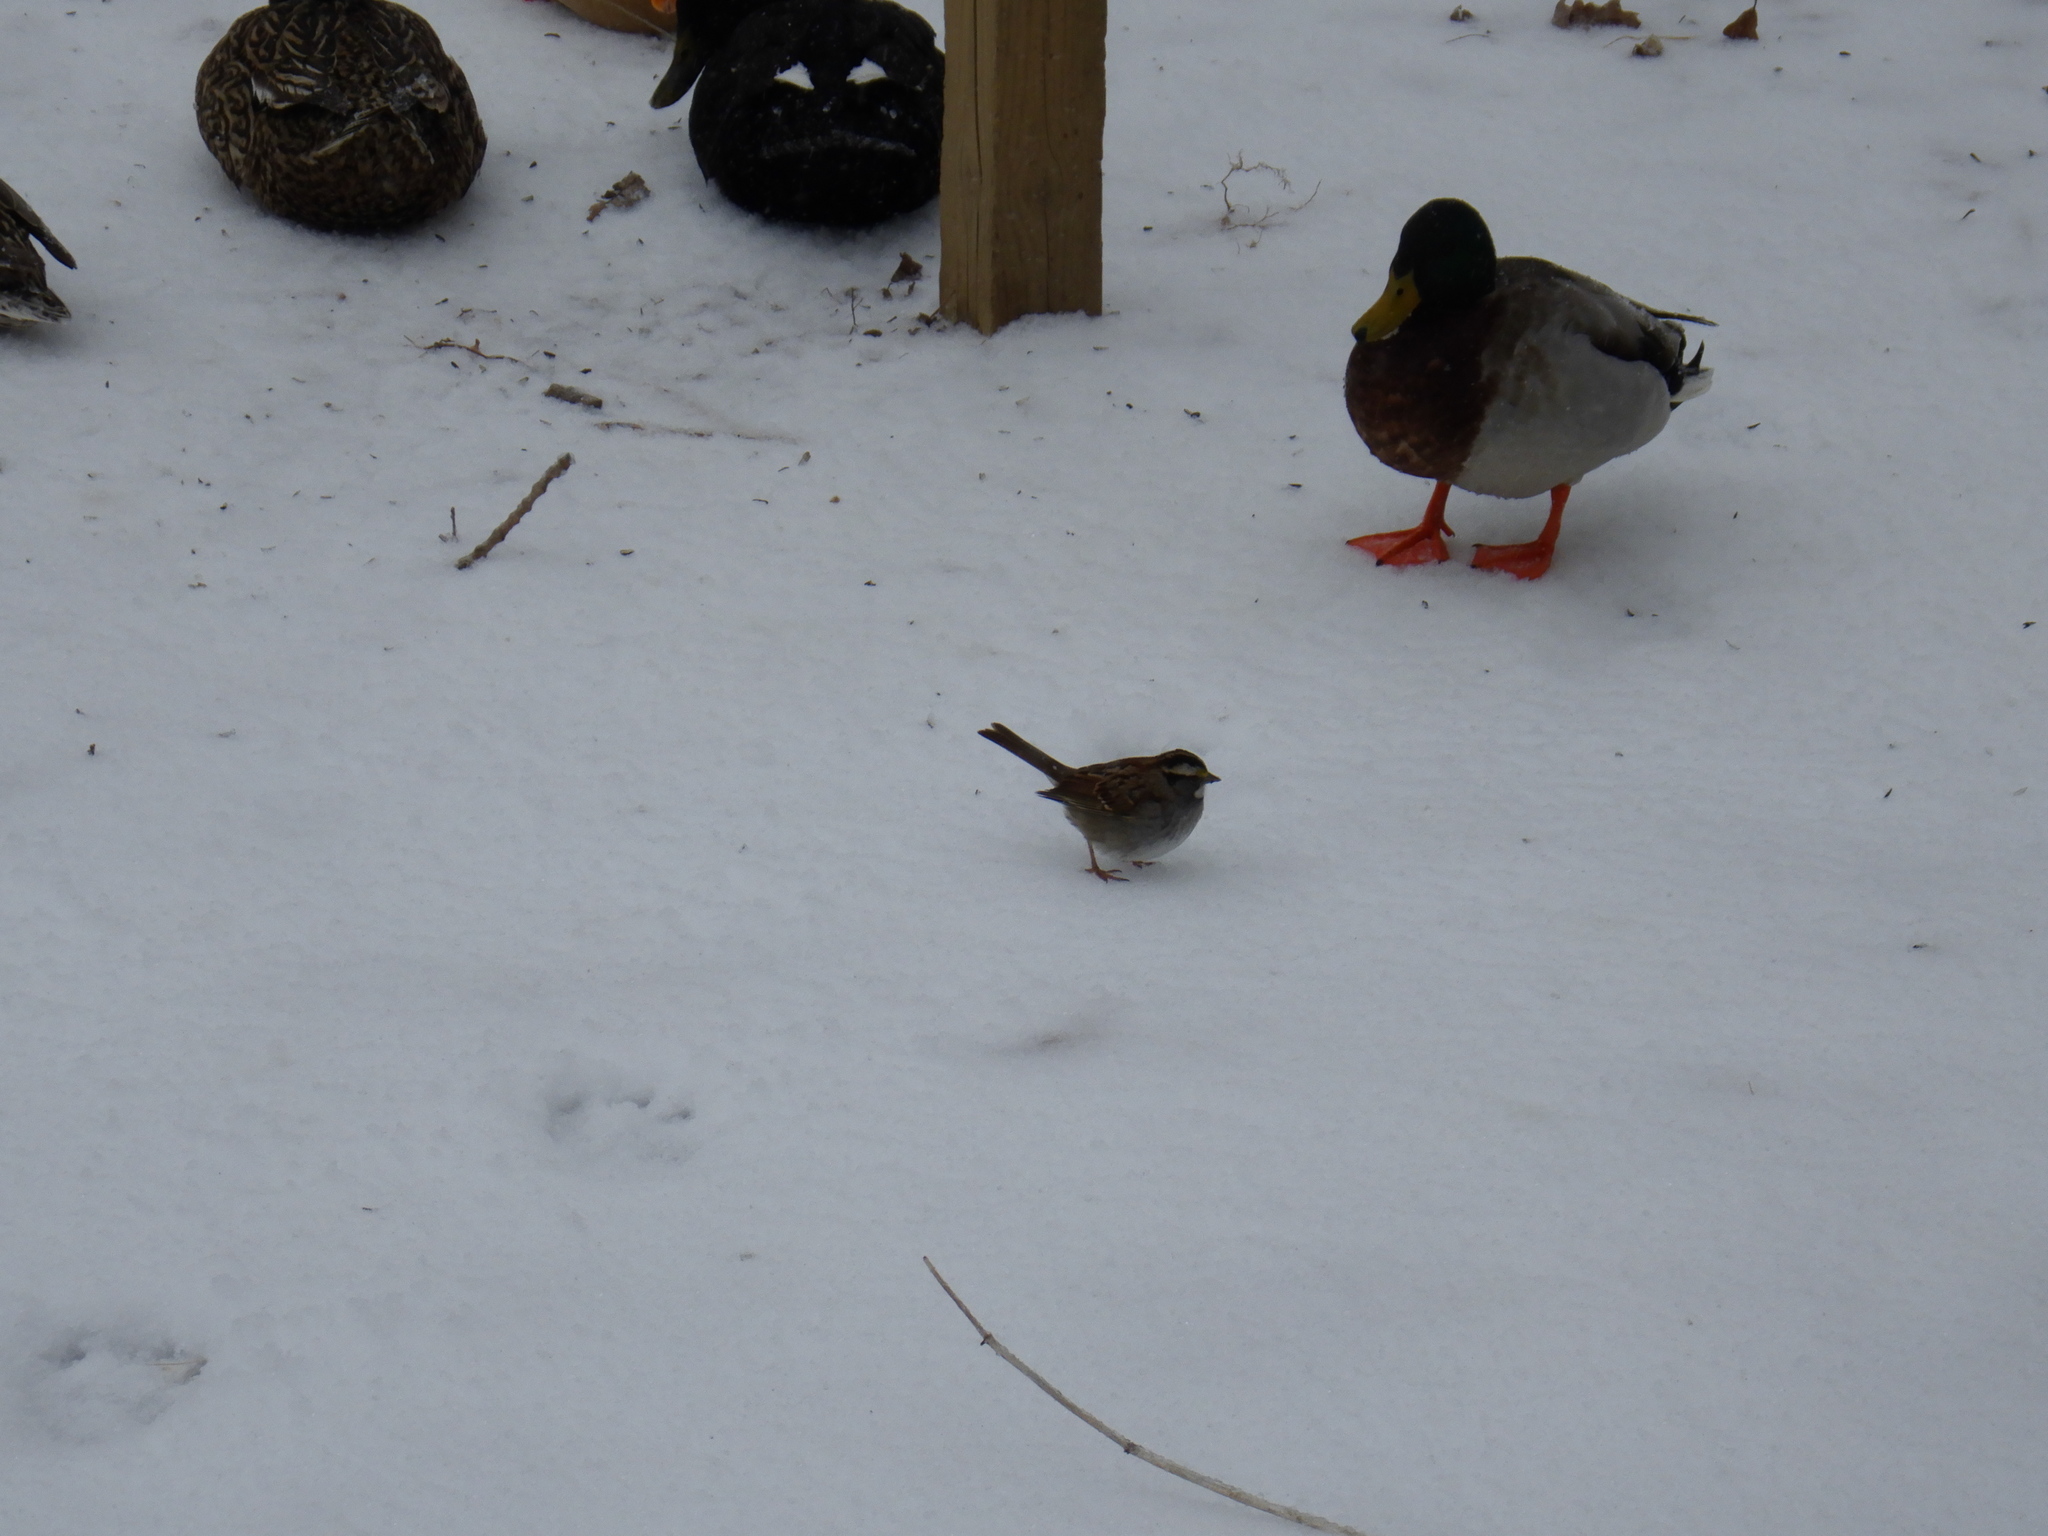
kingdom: Animalia
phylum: Chordata
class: Aves
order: Passeriformes
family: Passerellidae
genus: Zonotrichia
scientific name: Zonotrichia albicollis
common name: White-throated sparrow
